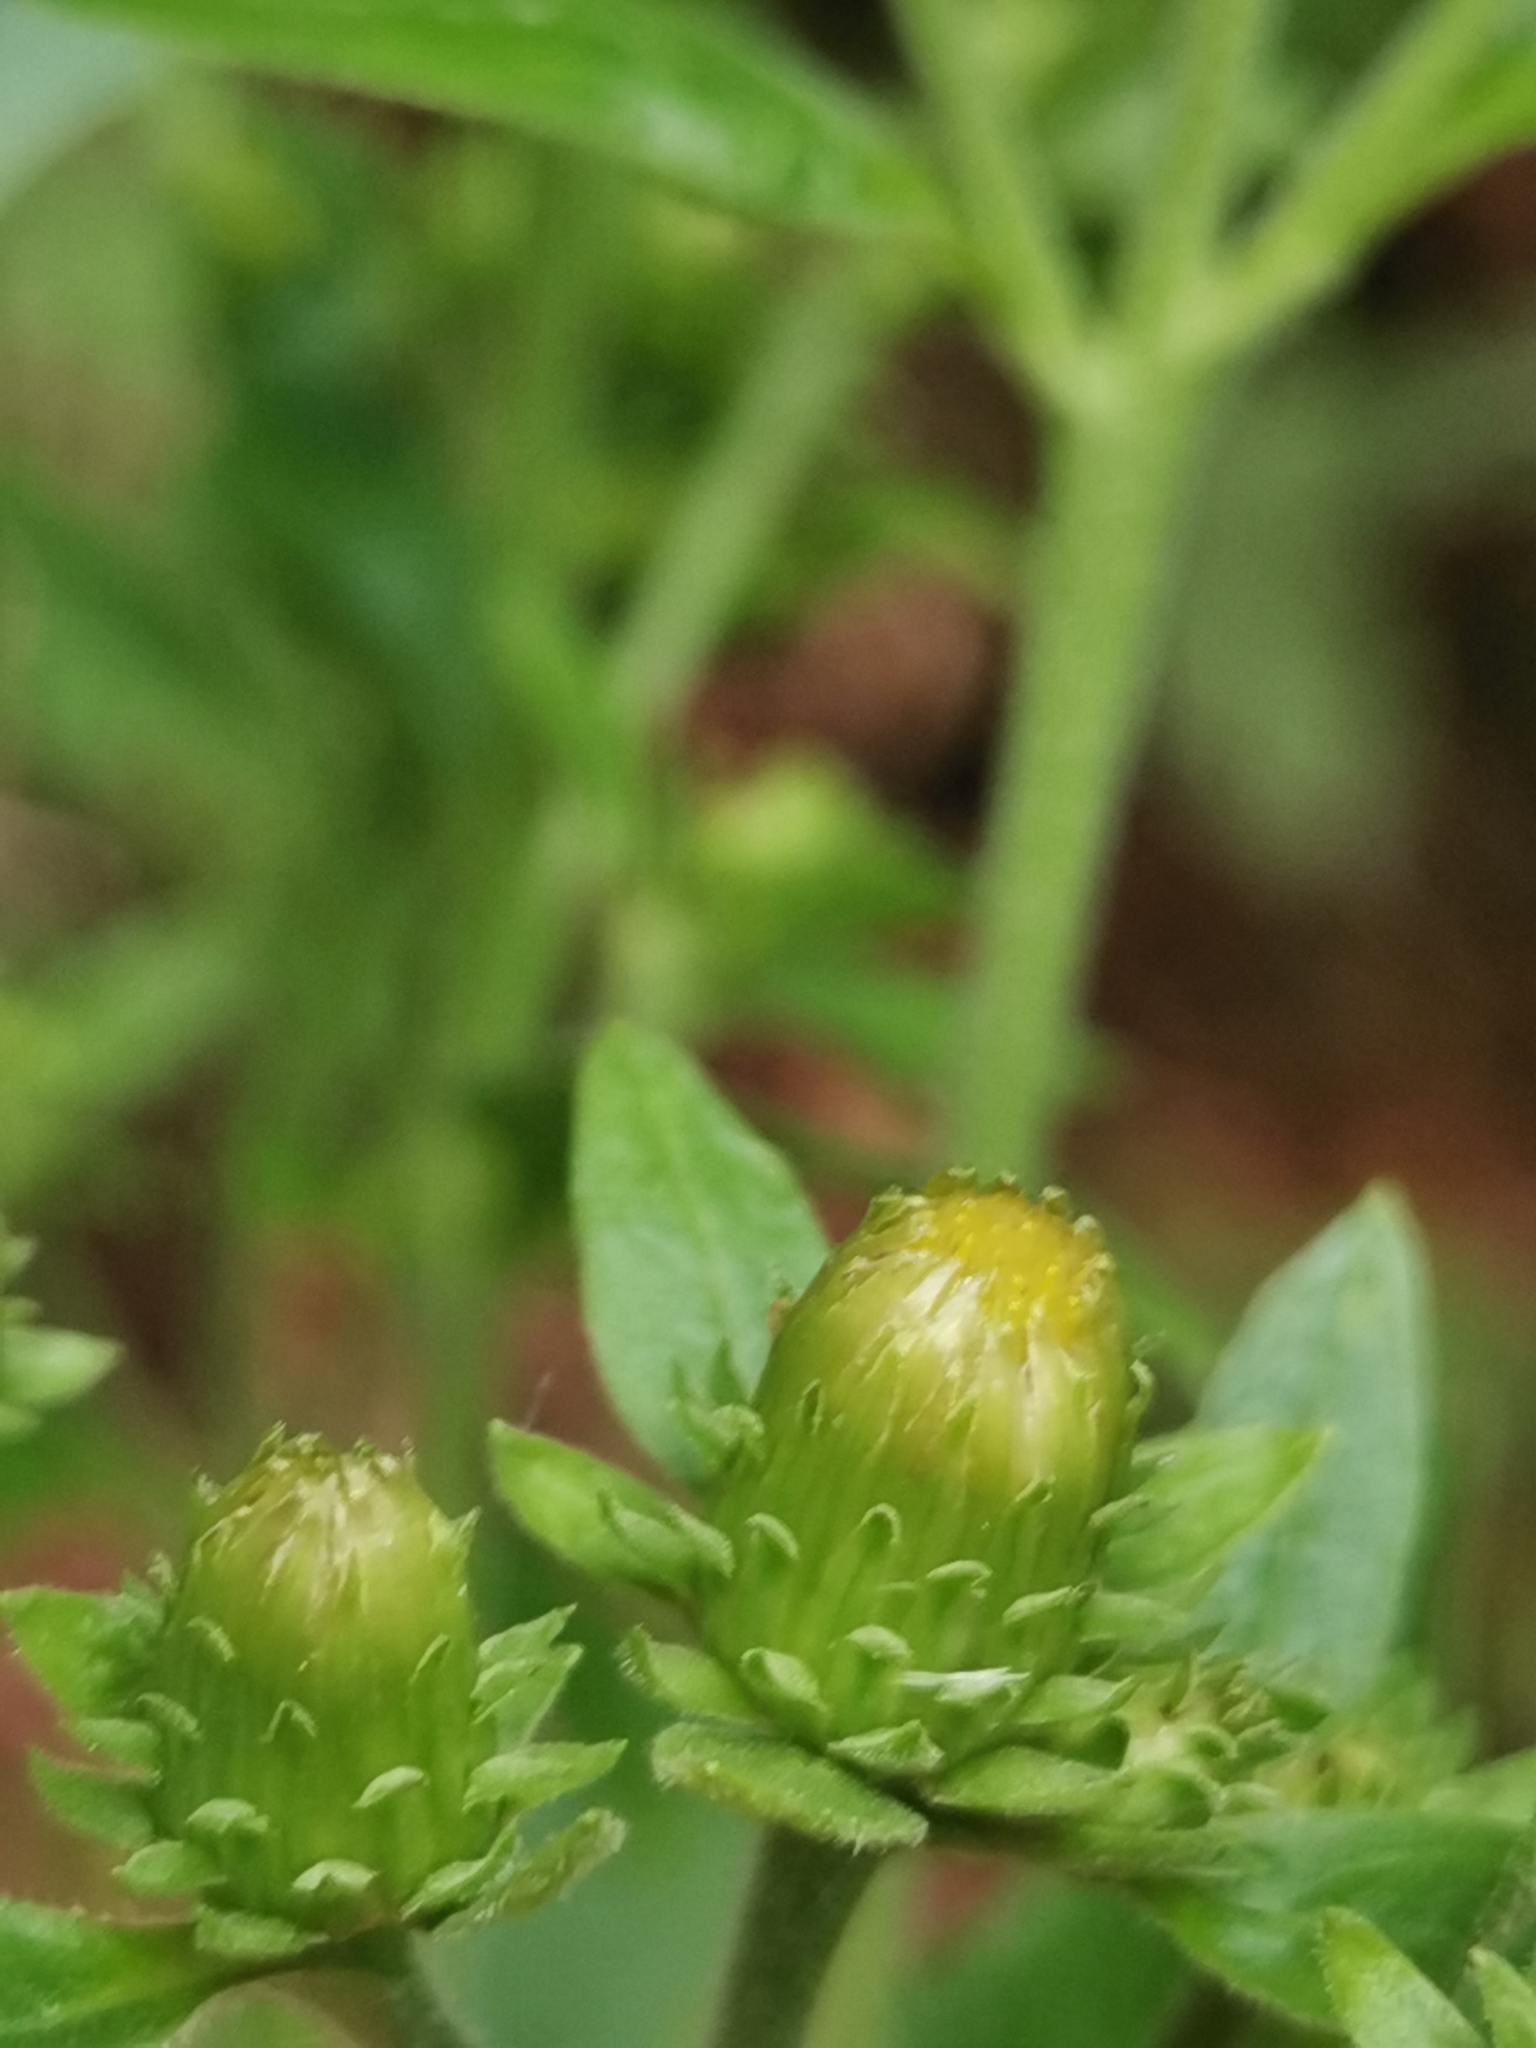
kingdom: Plantae
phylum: Tracheophyta
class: Magnoliopsida
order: Asterales
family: Asteraceae
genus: Pentanema
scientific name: Pentanema squarrosum
